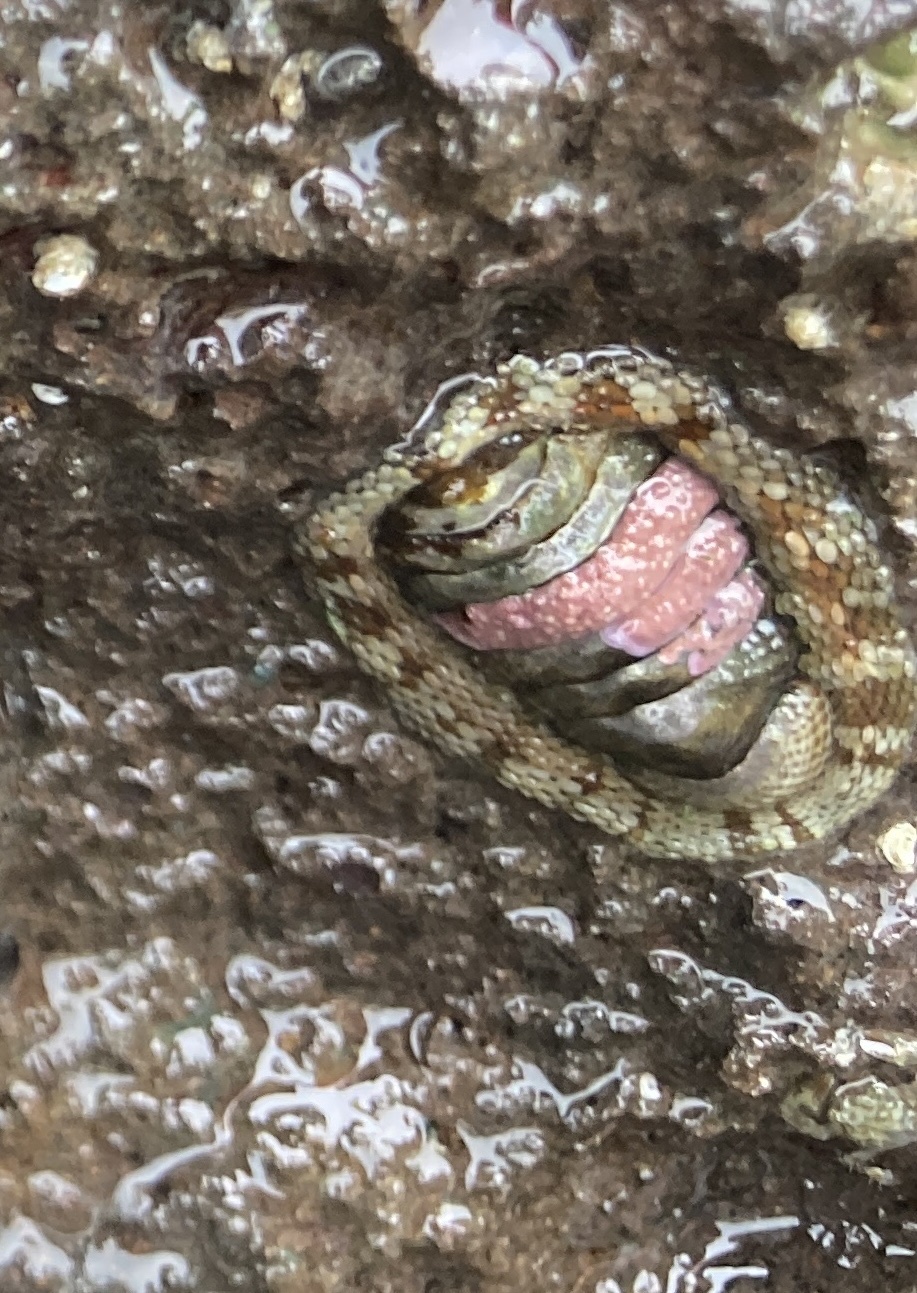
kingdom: Animalia
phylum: Mollusca
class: Polyplacophora
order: Chitonida
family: Chitonidae
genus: Sypharochiton
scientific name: Sypharochiton pelliserpentis
